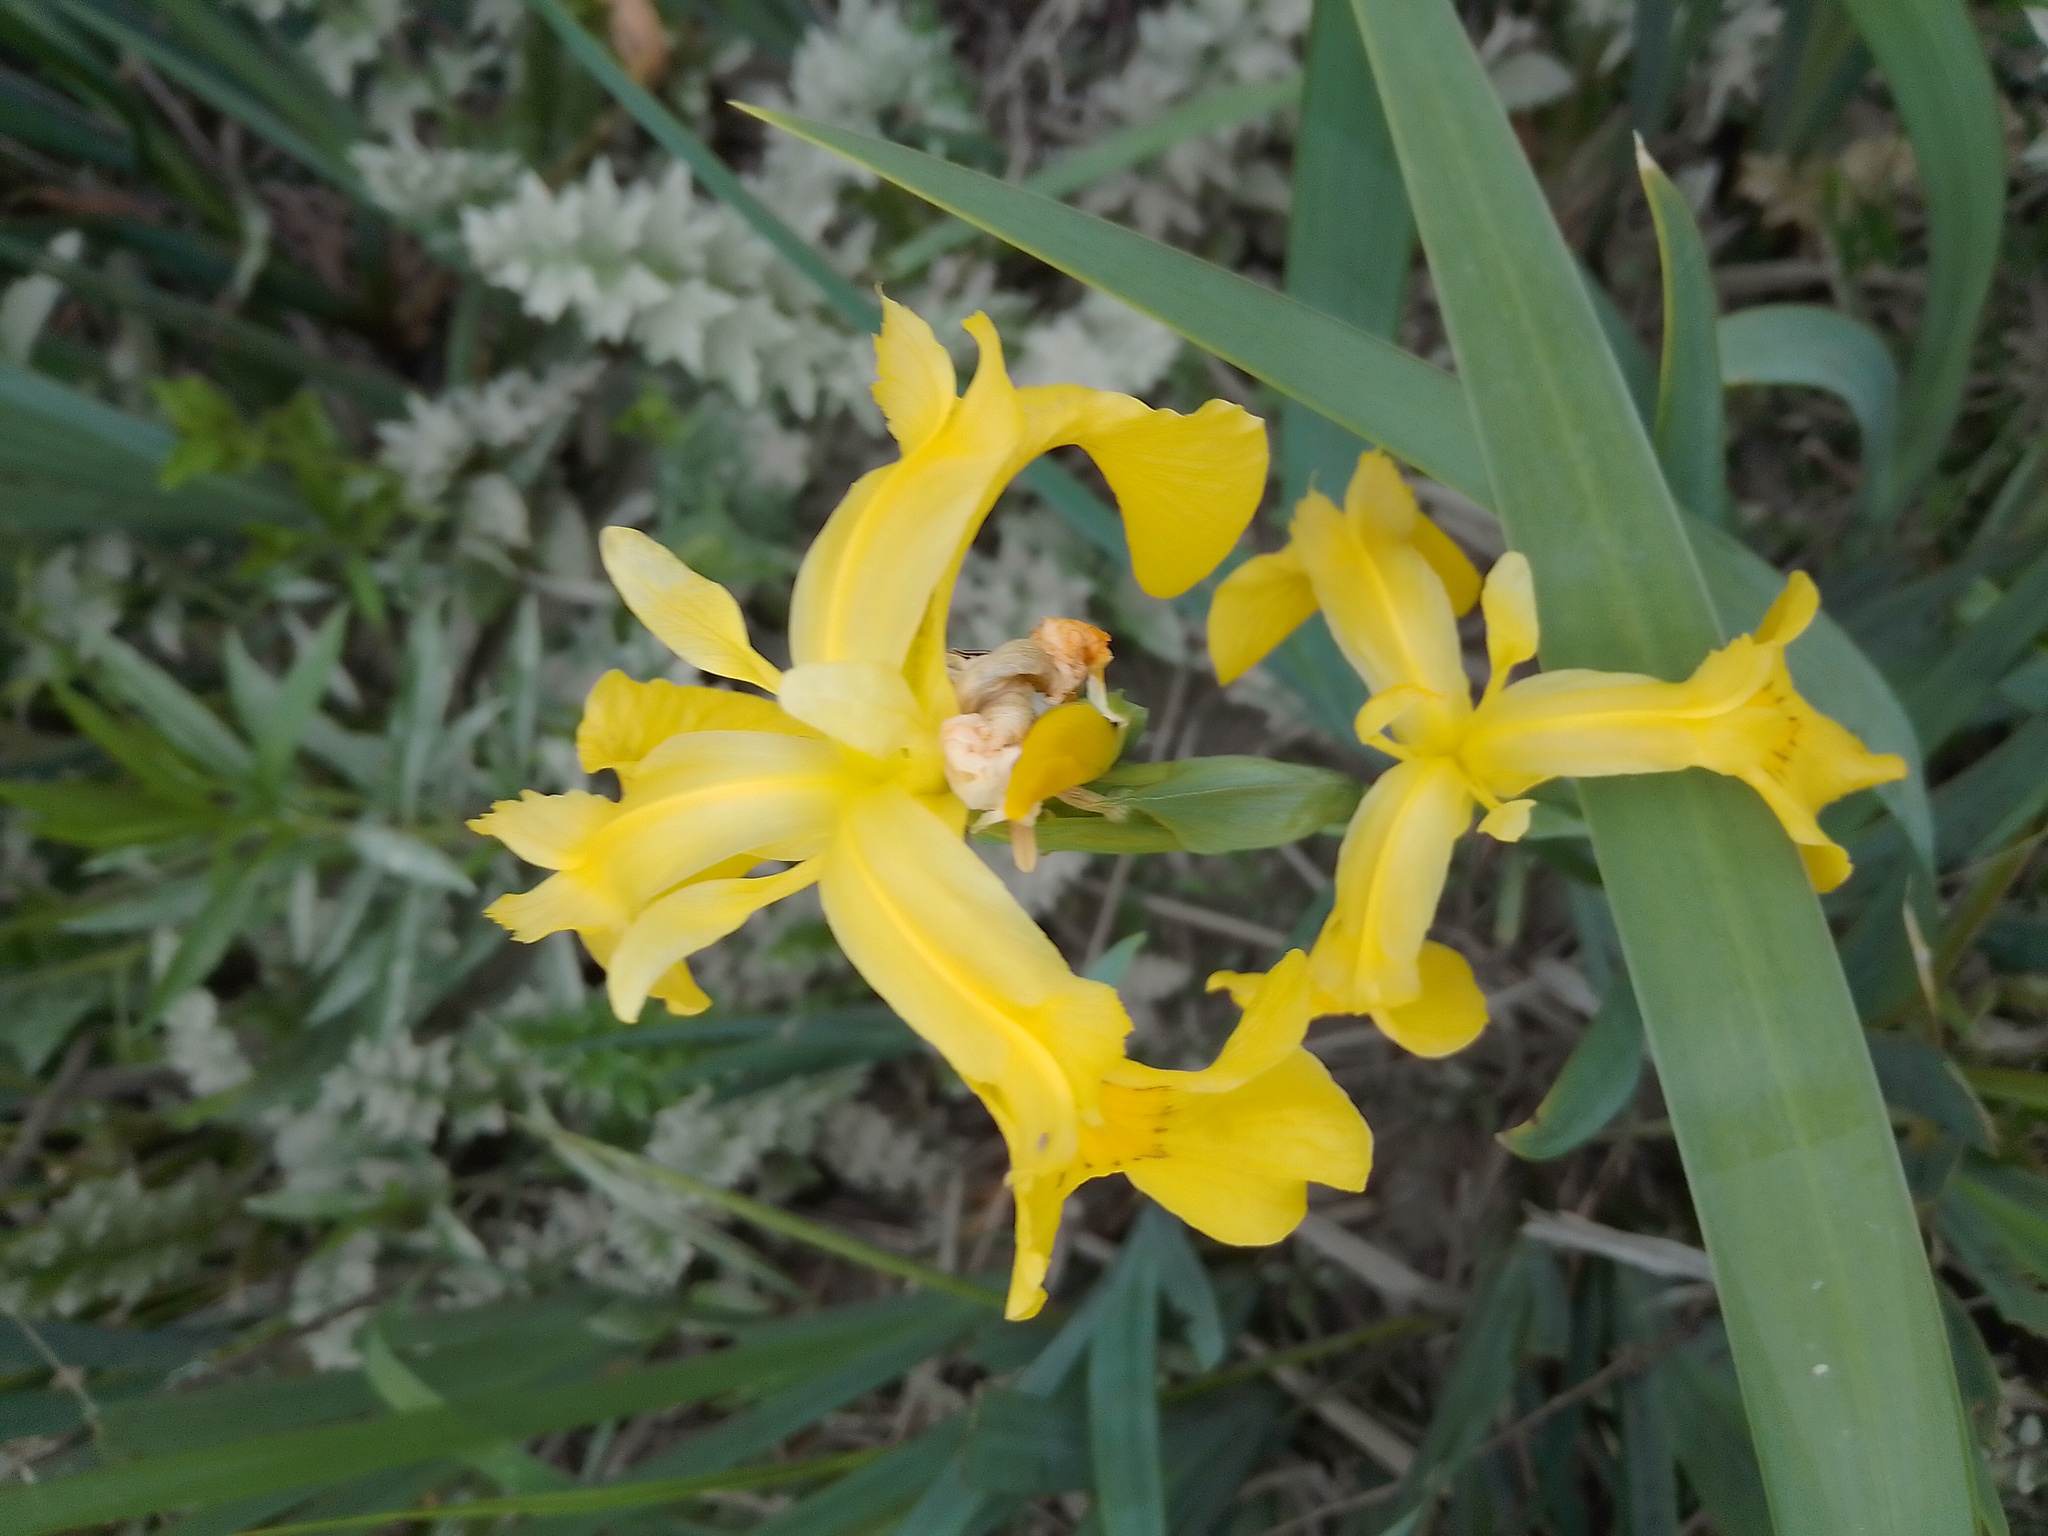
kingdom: Plantae
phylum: Tracheophyta
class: Liliopsida
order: Asparagales
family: Iridaceae
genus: Iris
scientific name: Iris pseudacorus
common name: Yellow flag
